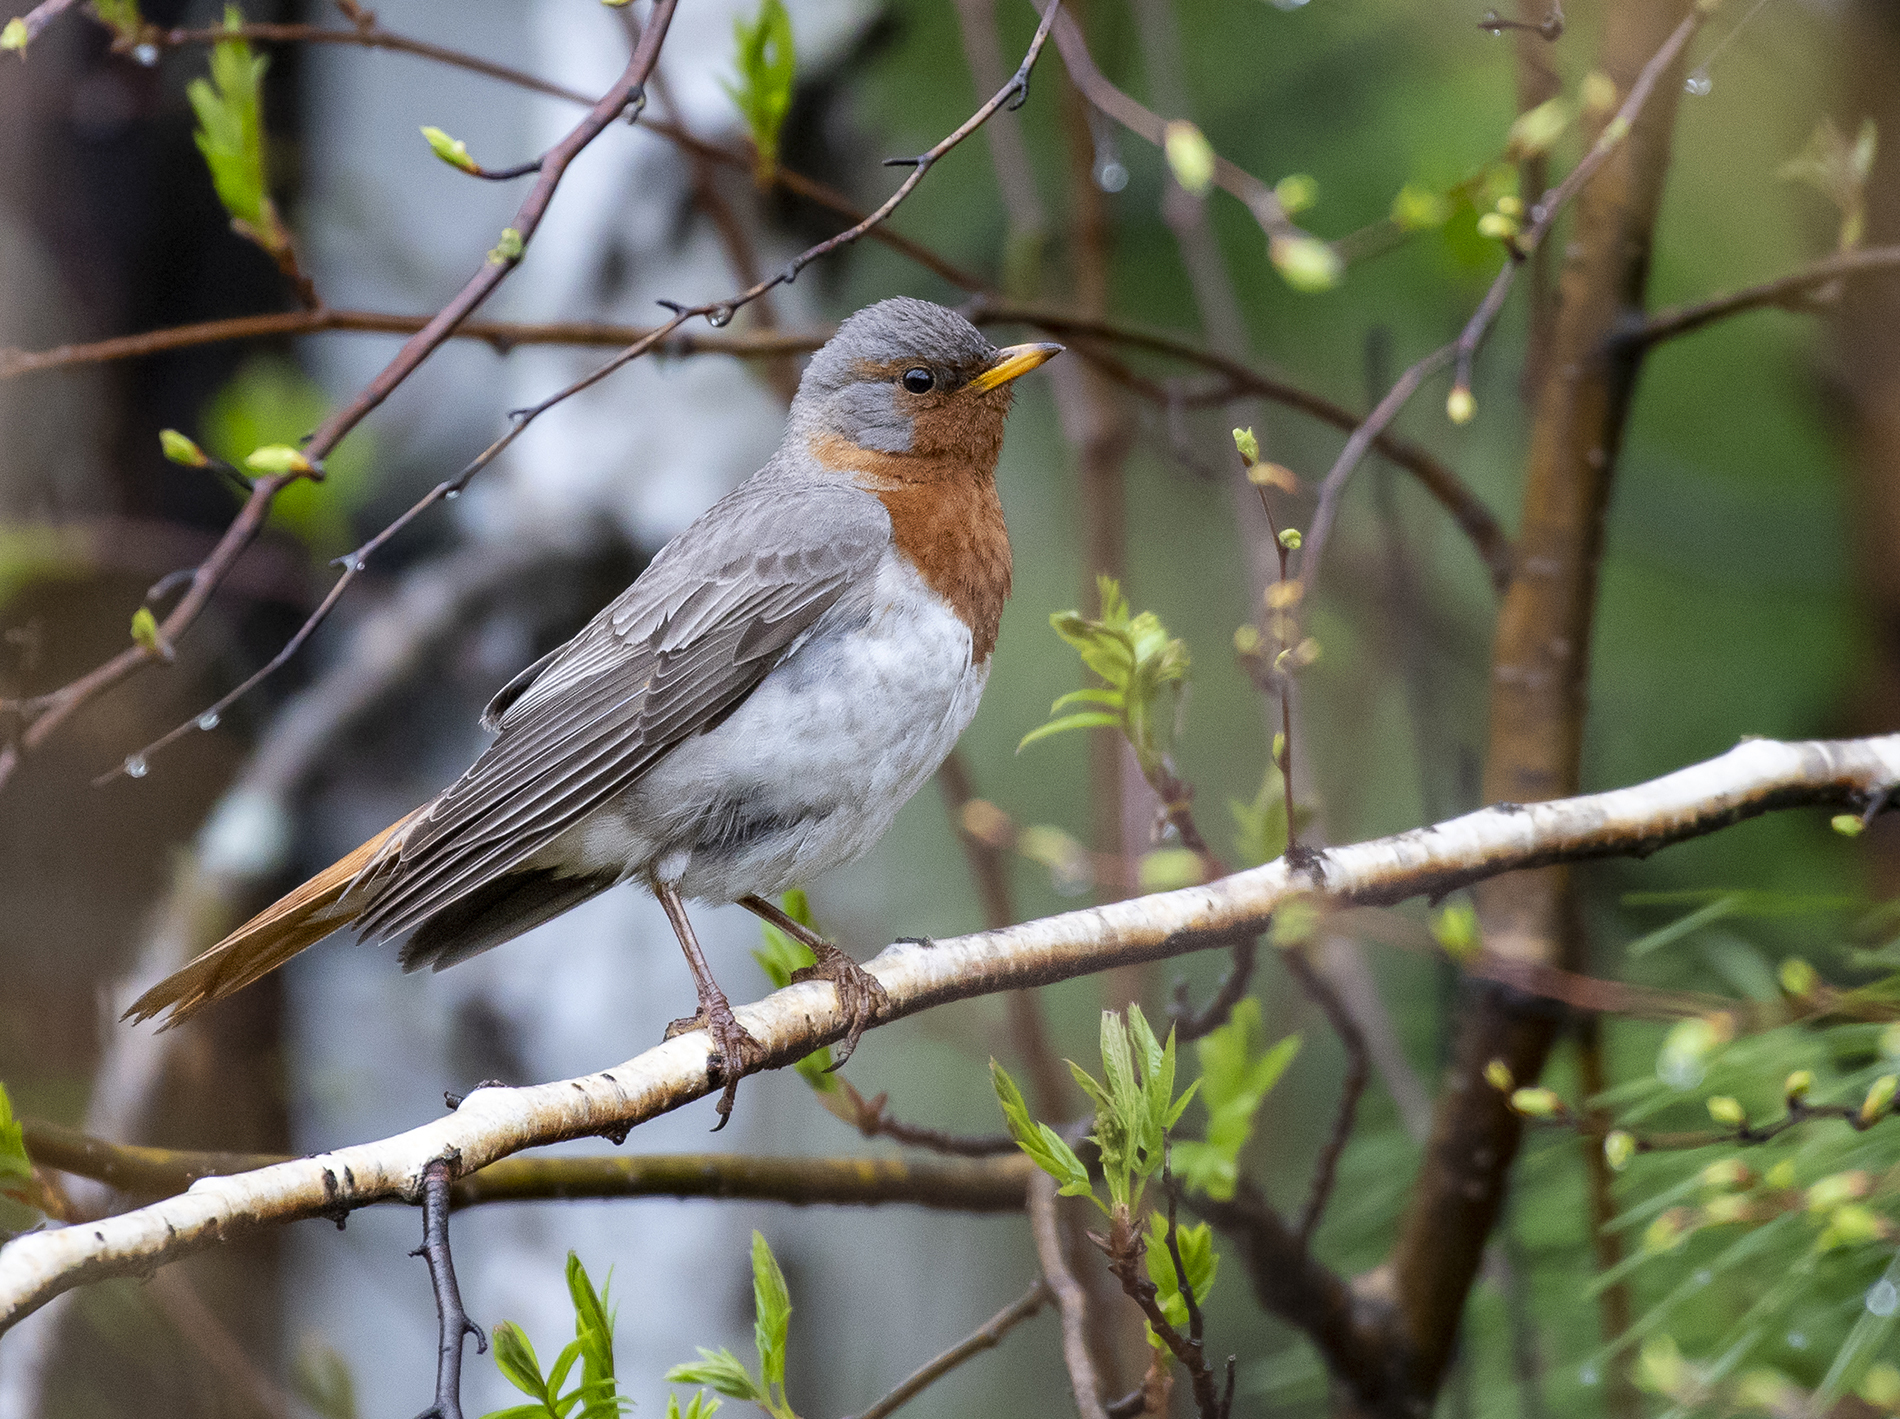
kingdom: Animalia
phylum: Chordata
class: Aves
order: Passeriformes
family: Turdidae
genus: Turdus
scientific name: Turdus ruficollis
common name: Red-throated thrush
